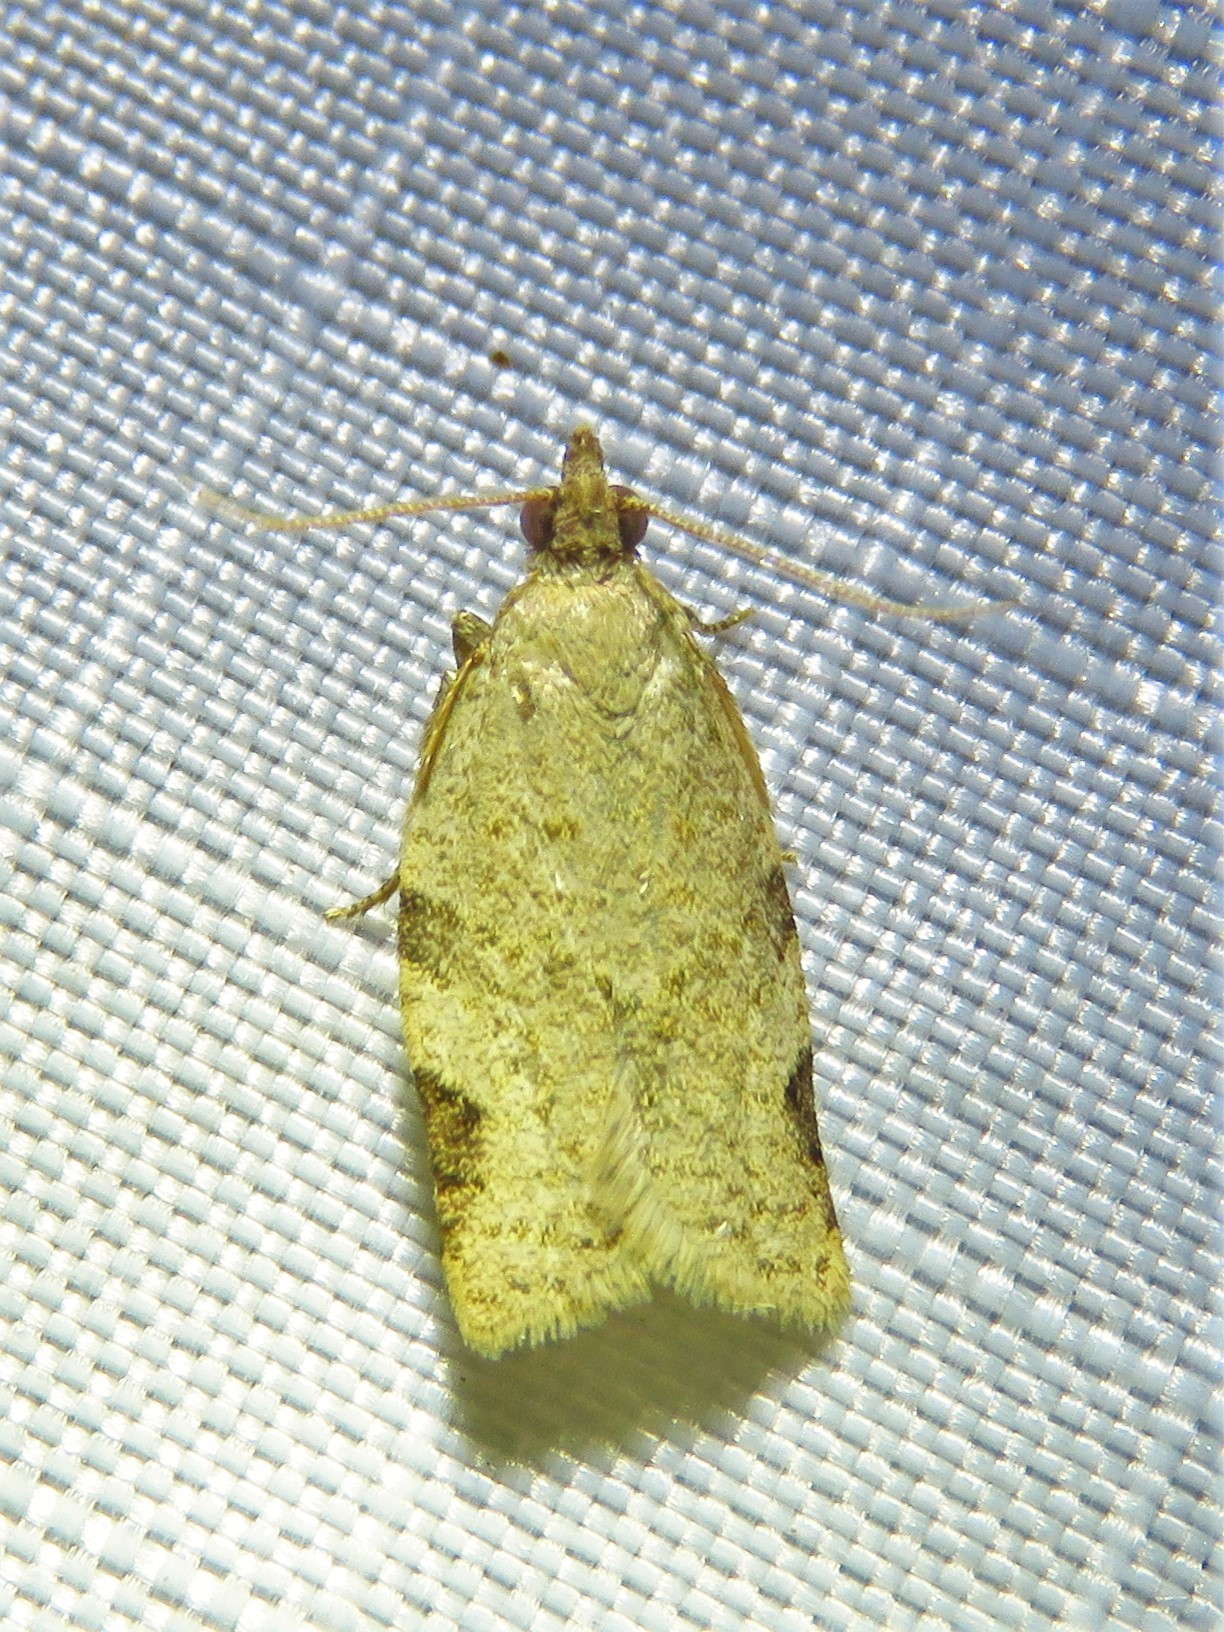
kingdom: Animalia
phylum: Arthropoda
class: Insecta
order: Lepidoptera
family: Tortricidae
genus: Clepsis
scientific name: Clepsis virescana
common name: Greenish apple moth
